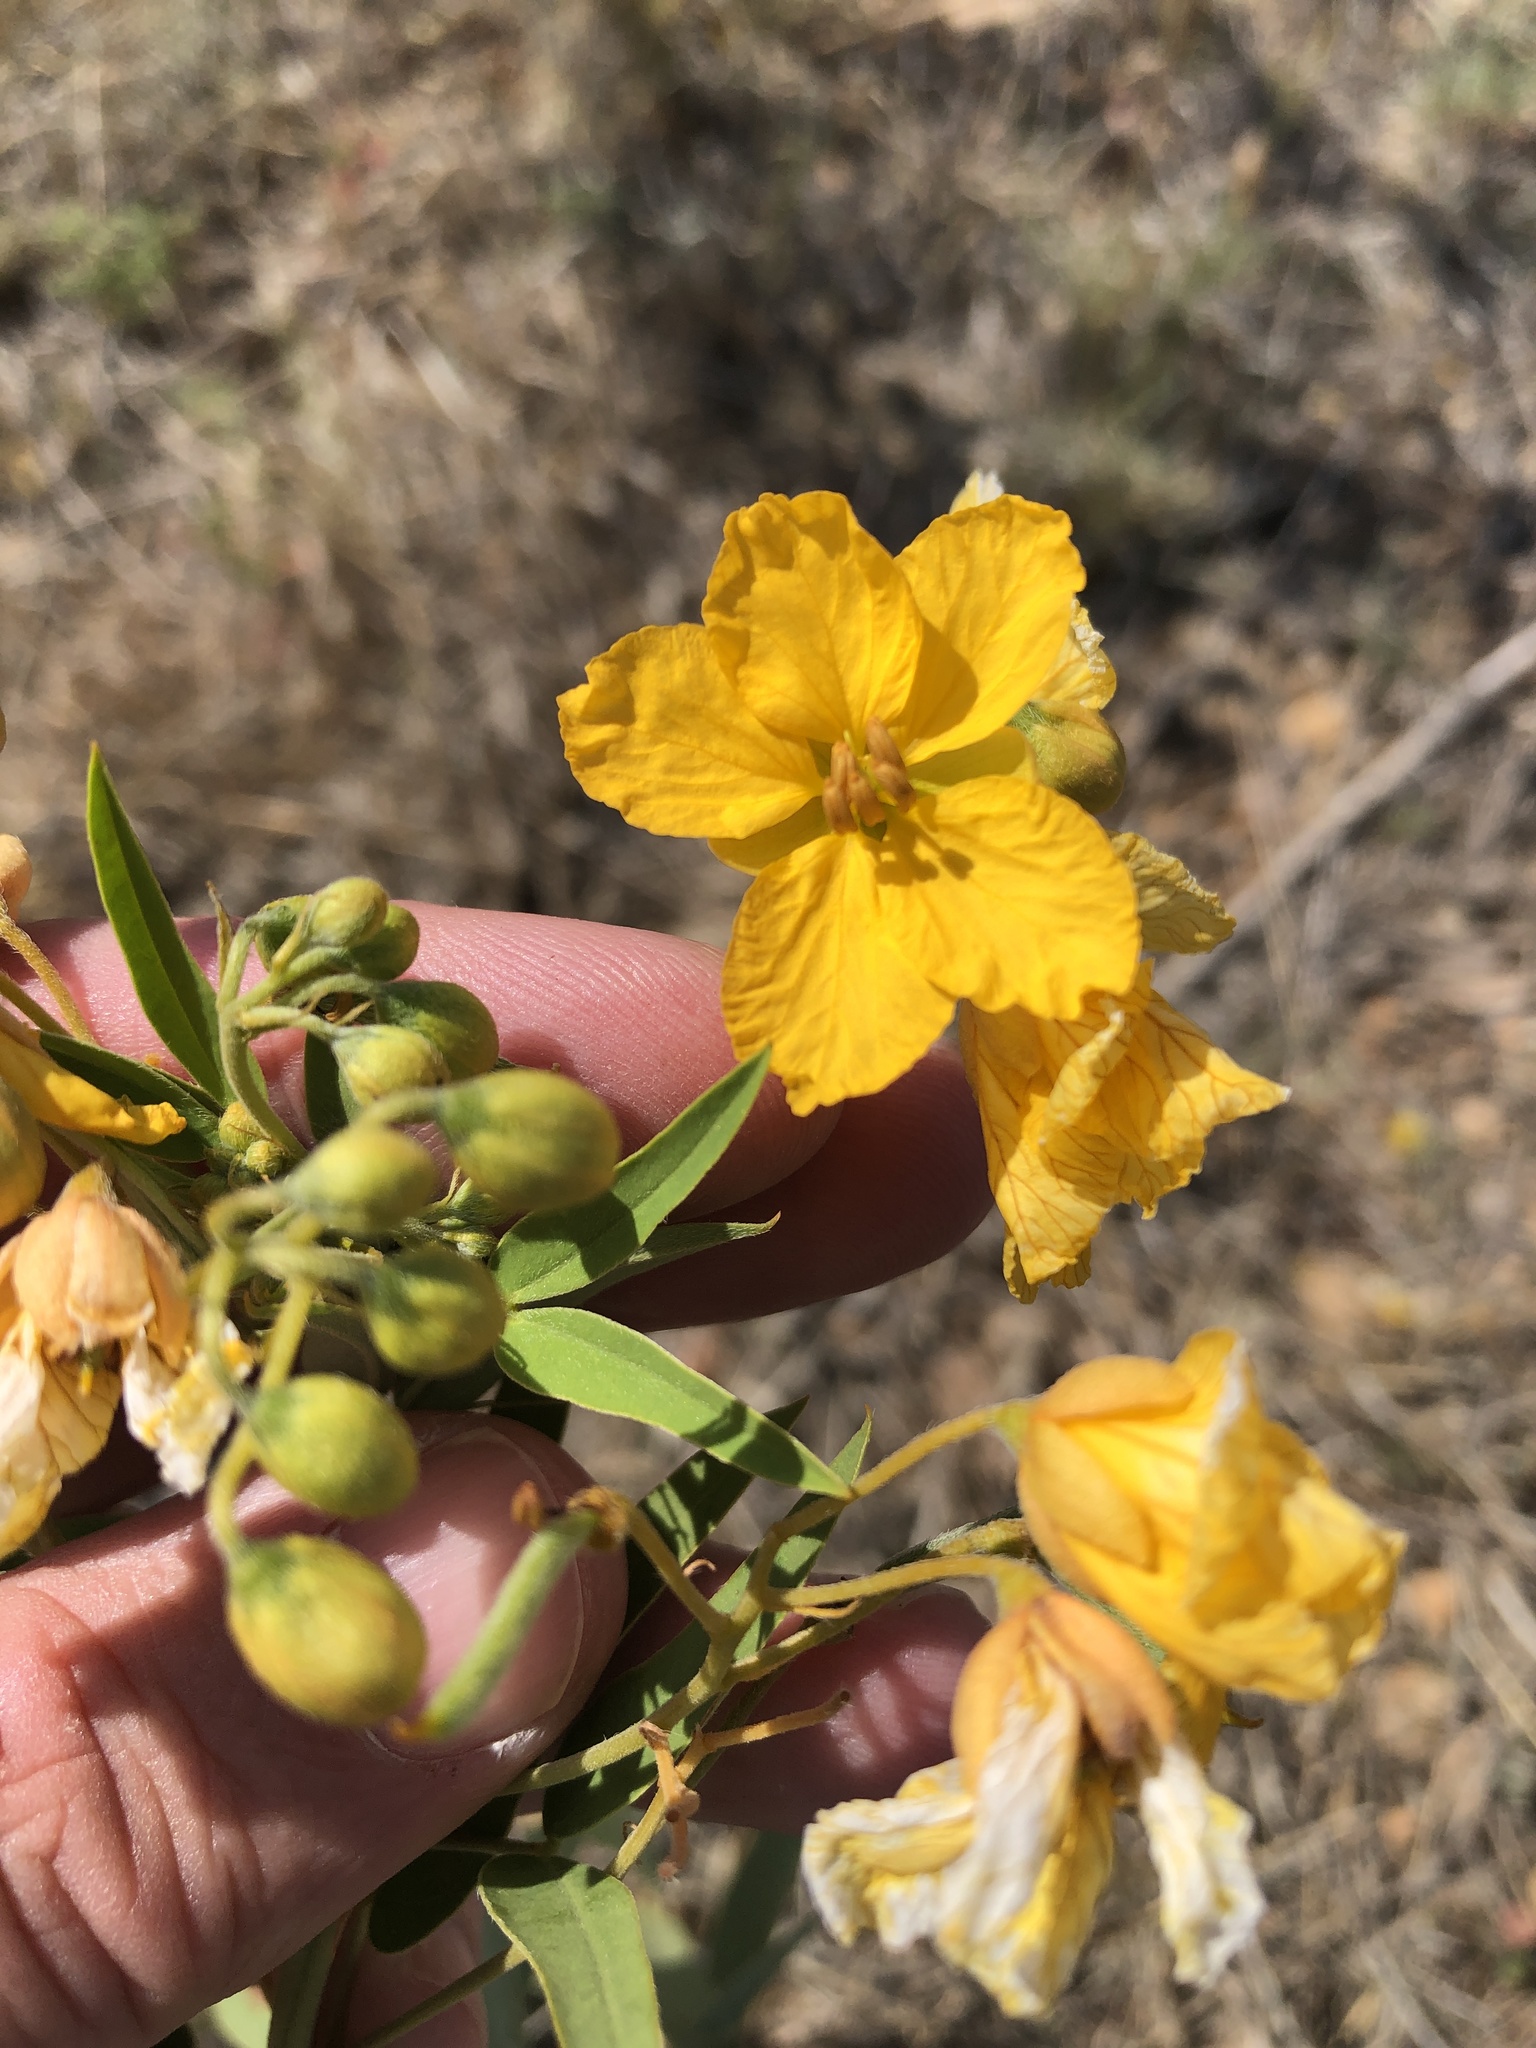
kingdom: Plantae
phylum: Tracheophyta
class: Magnoliopsida
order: Fabales
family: Fabaceae
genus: Senna
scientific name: Senna roemeriana
